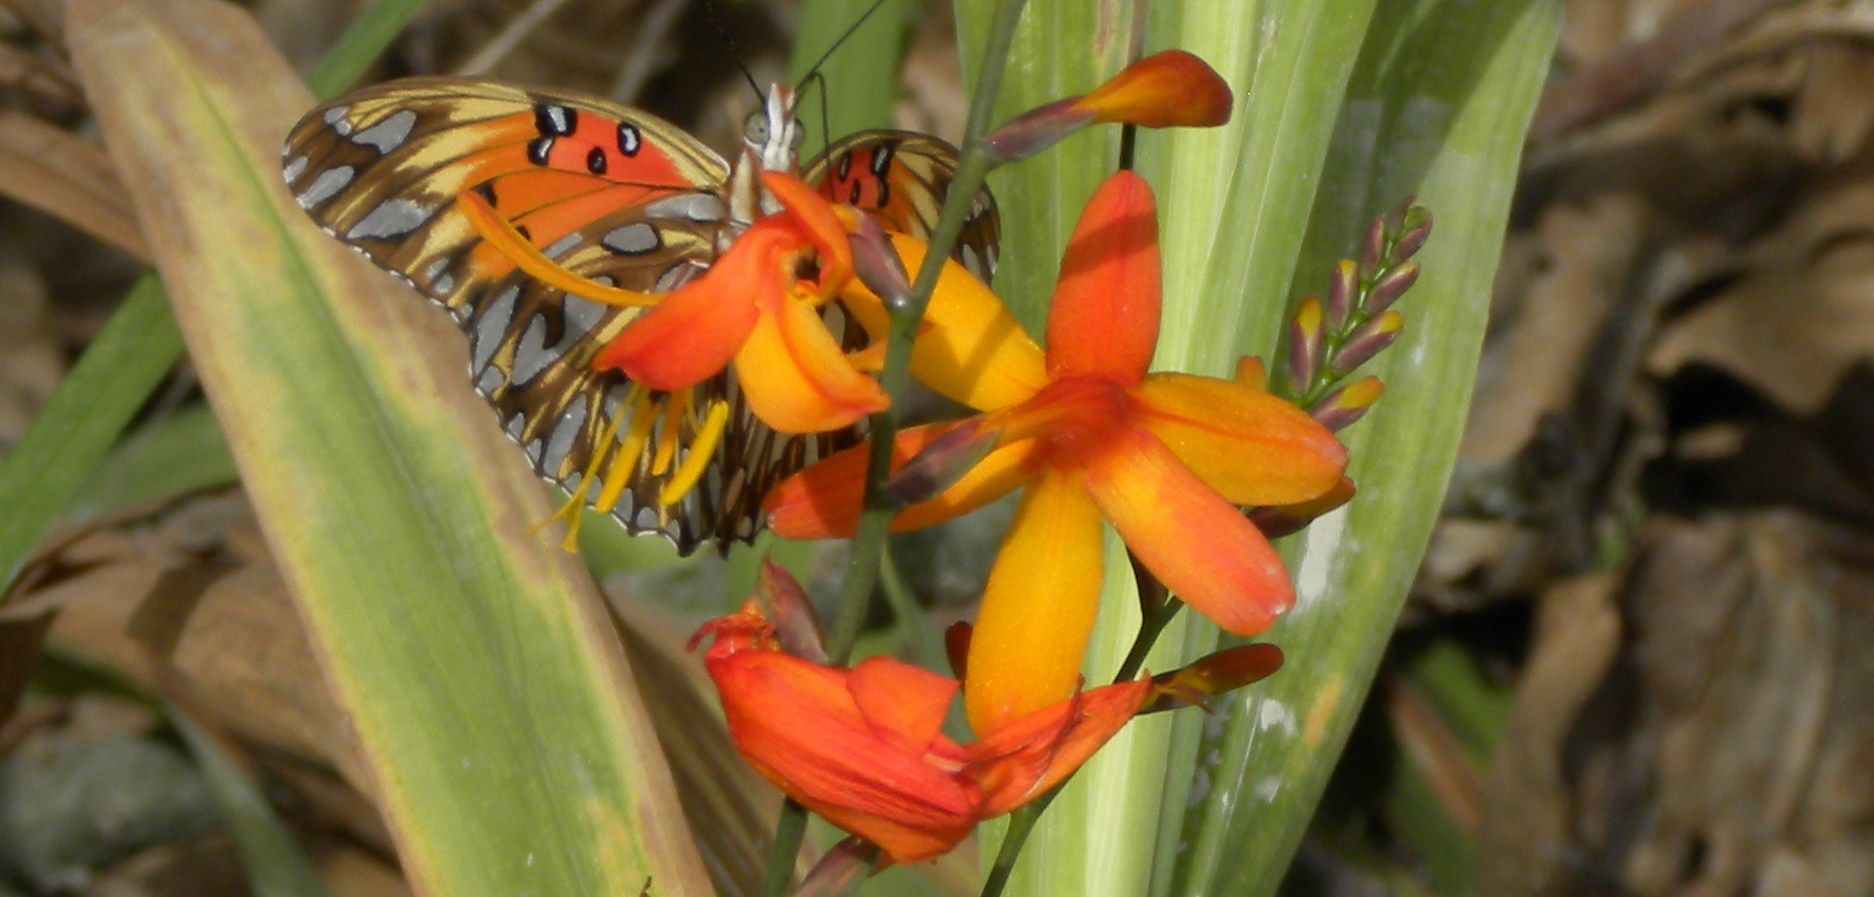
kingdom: Plantae
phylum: Tracheophyta
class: Liliopsida
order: Asparagales
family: Iridaceae
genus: Crocosmia
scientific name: Crocosmia crocosmiiflora
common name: Montbretia
